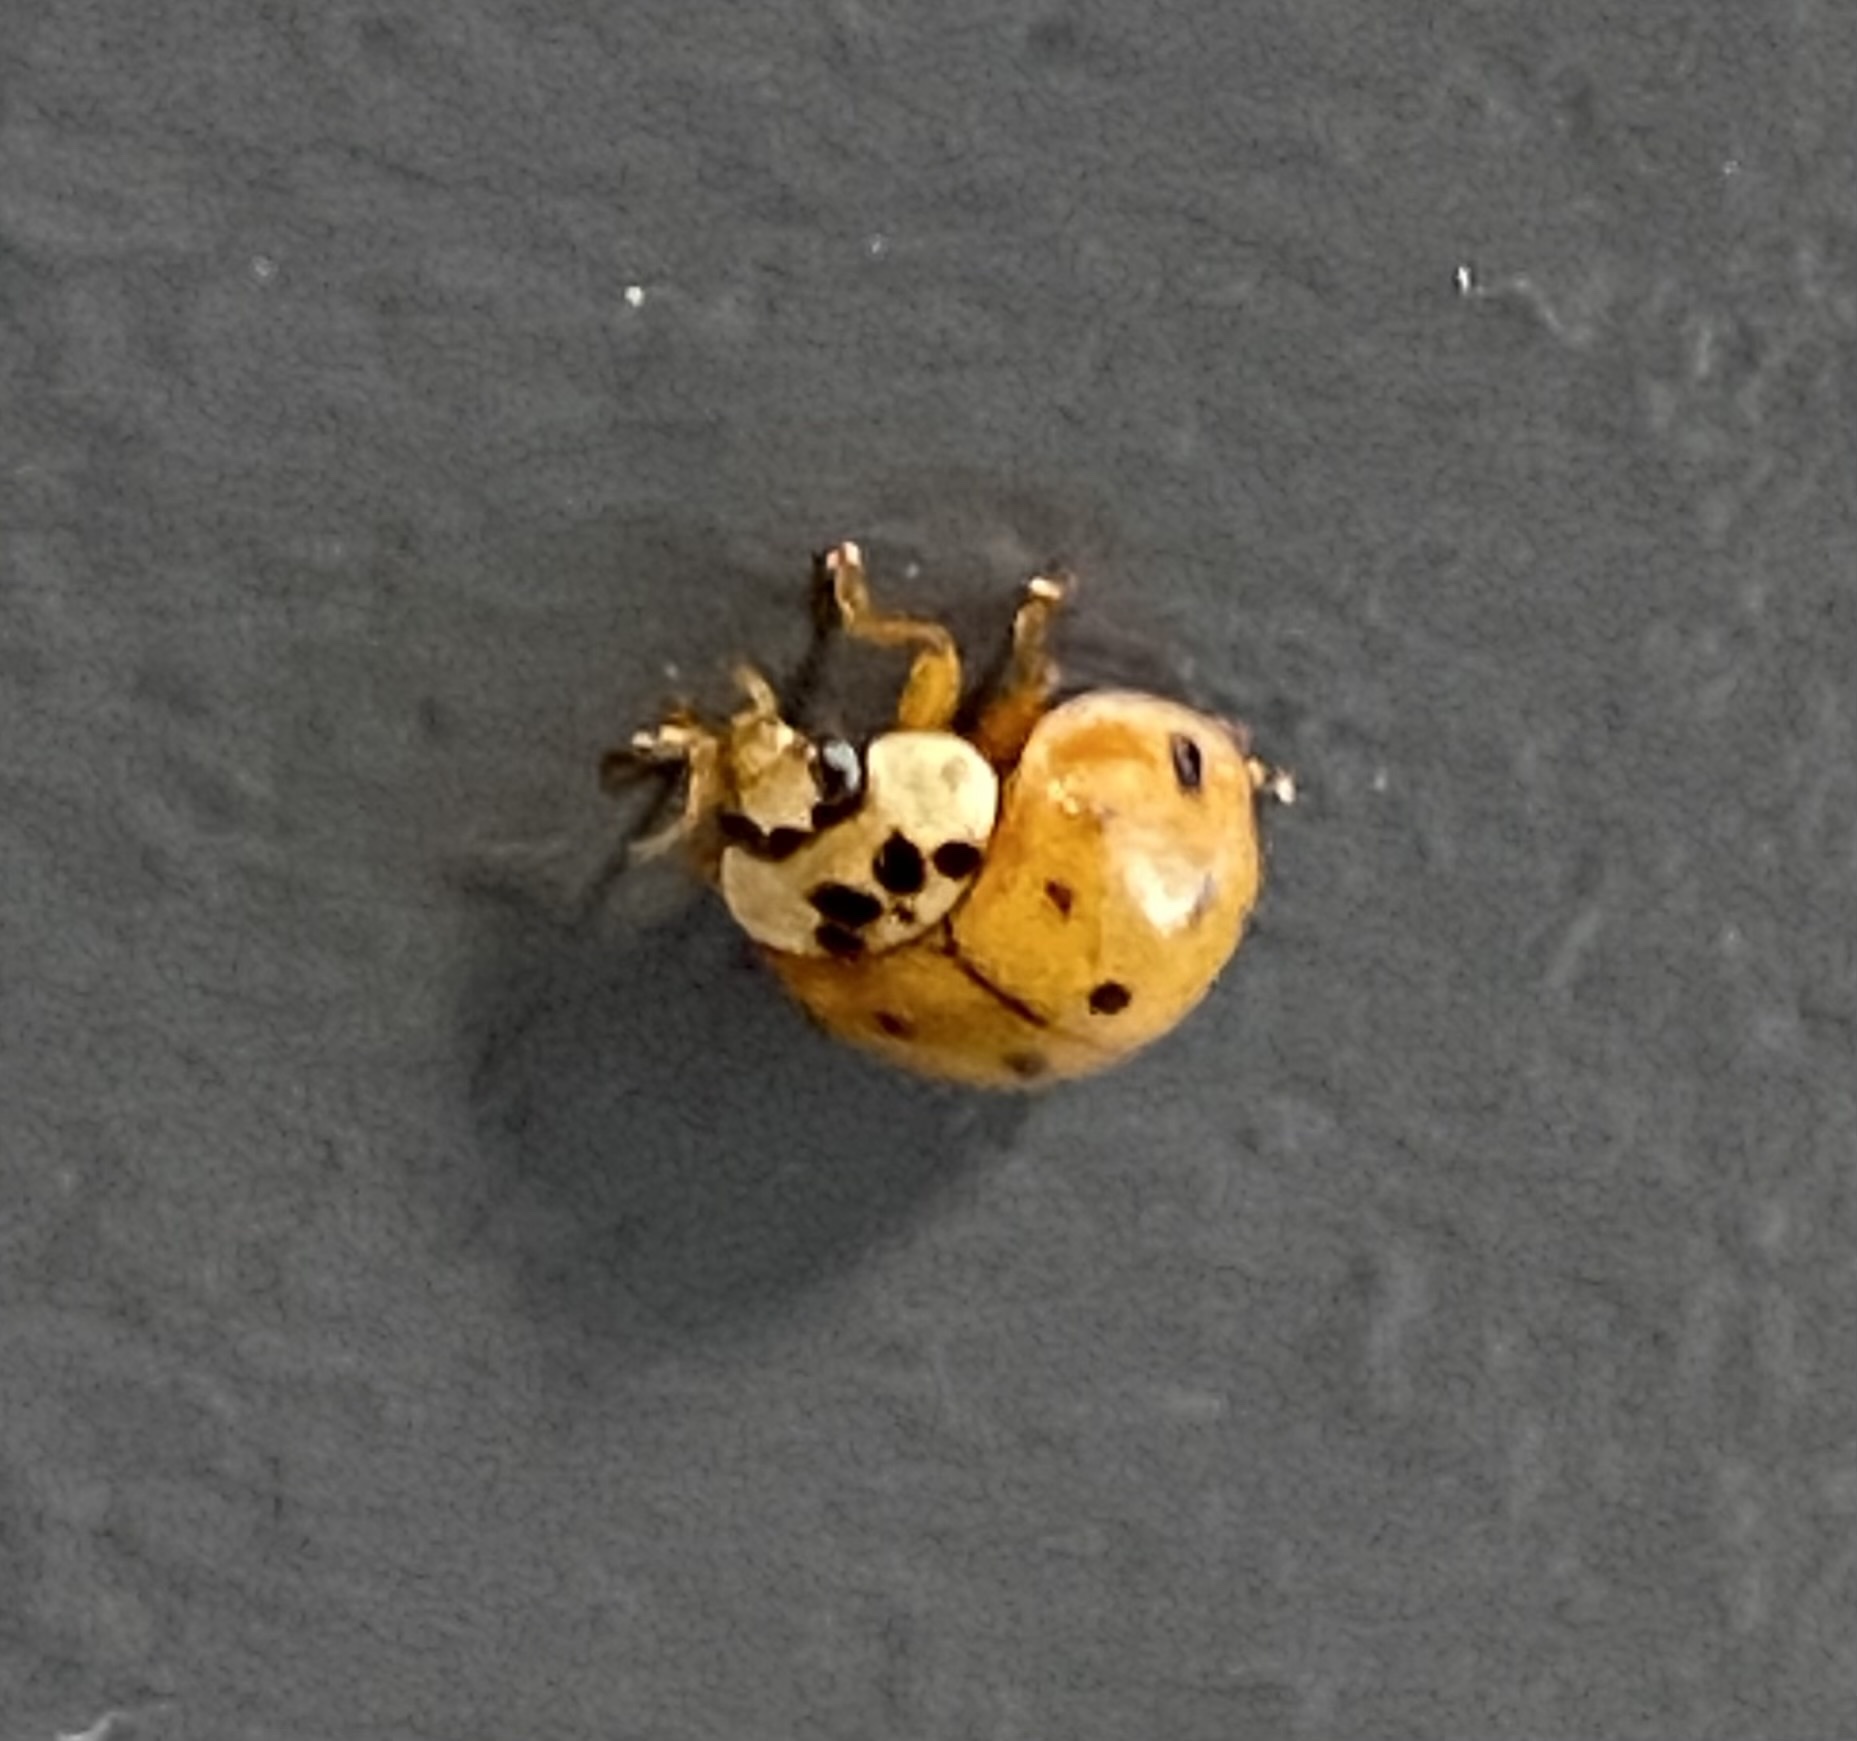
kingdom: Animalia
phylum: Arthropoda
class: Insecta
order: Coleoptera
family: Coccinellidae
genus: Harmonia
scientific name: Harmonia axyridis
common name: Harlequin ladybird
